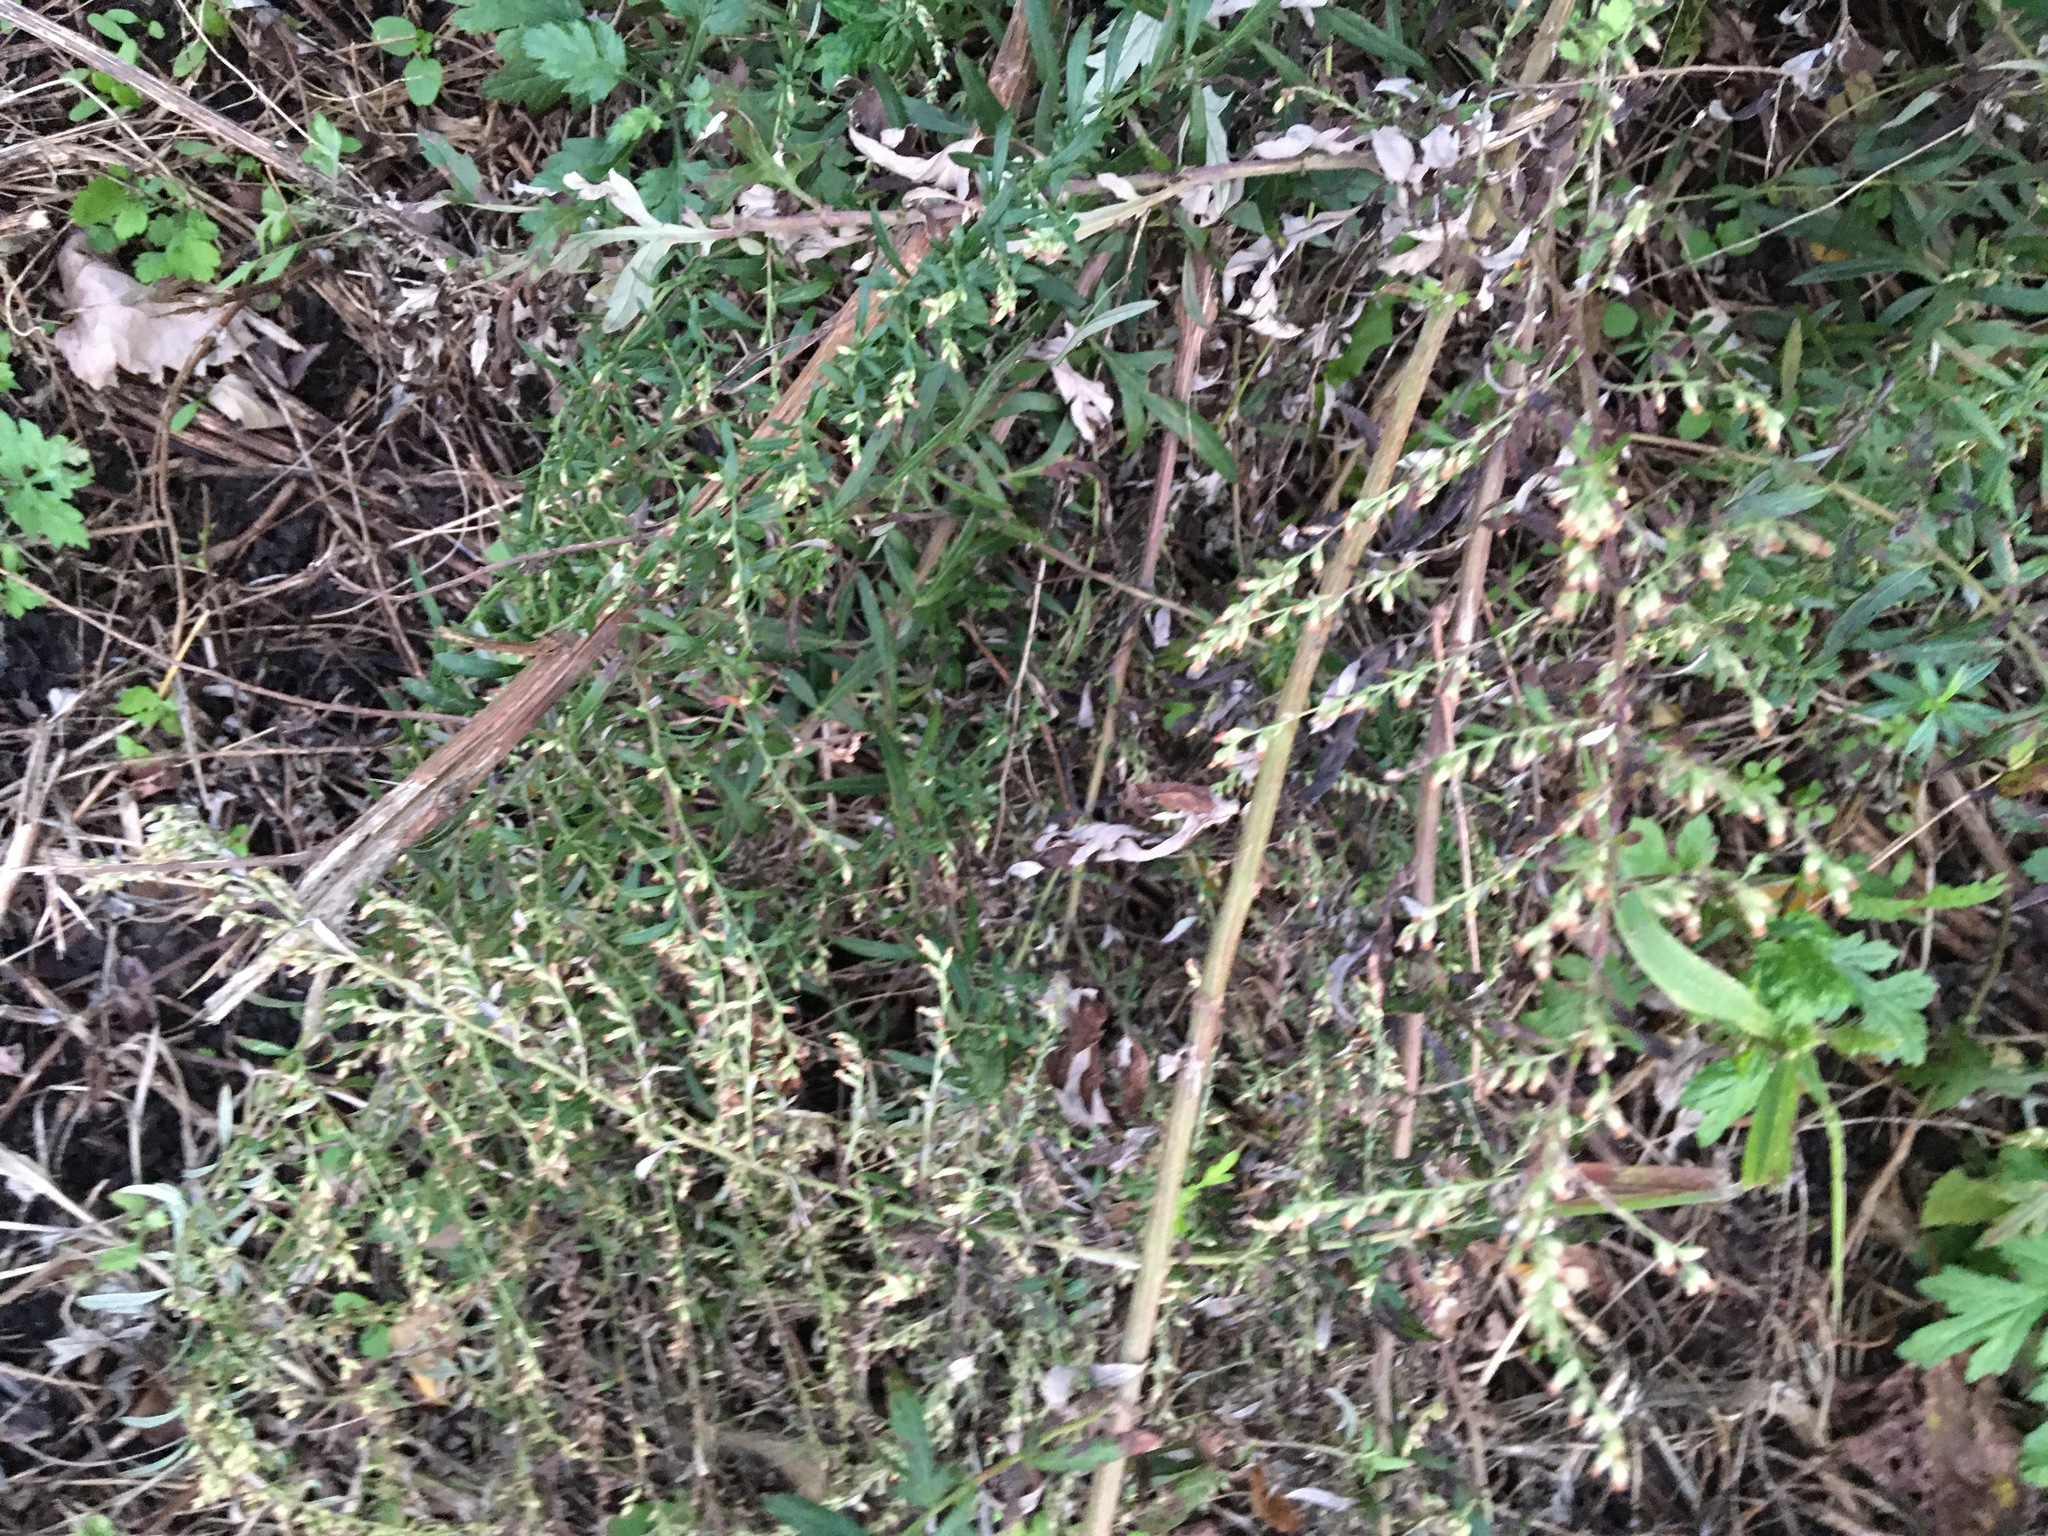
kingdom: Plantae
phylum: Tracheophyta
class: Magnoliopsida
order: Asterales
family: Asteraceae
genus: Artemisia
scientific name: Artemisia vulgaris
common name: Mugwort
